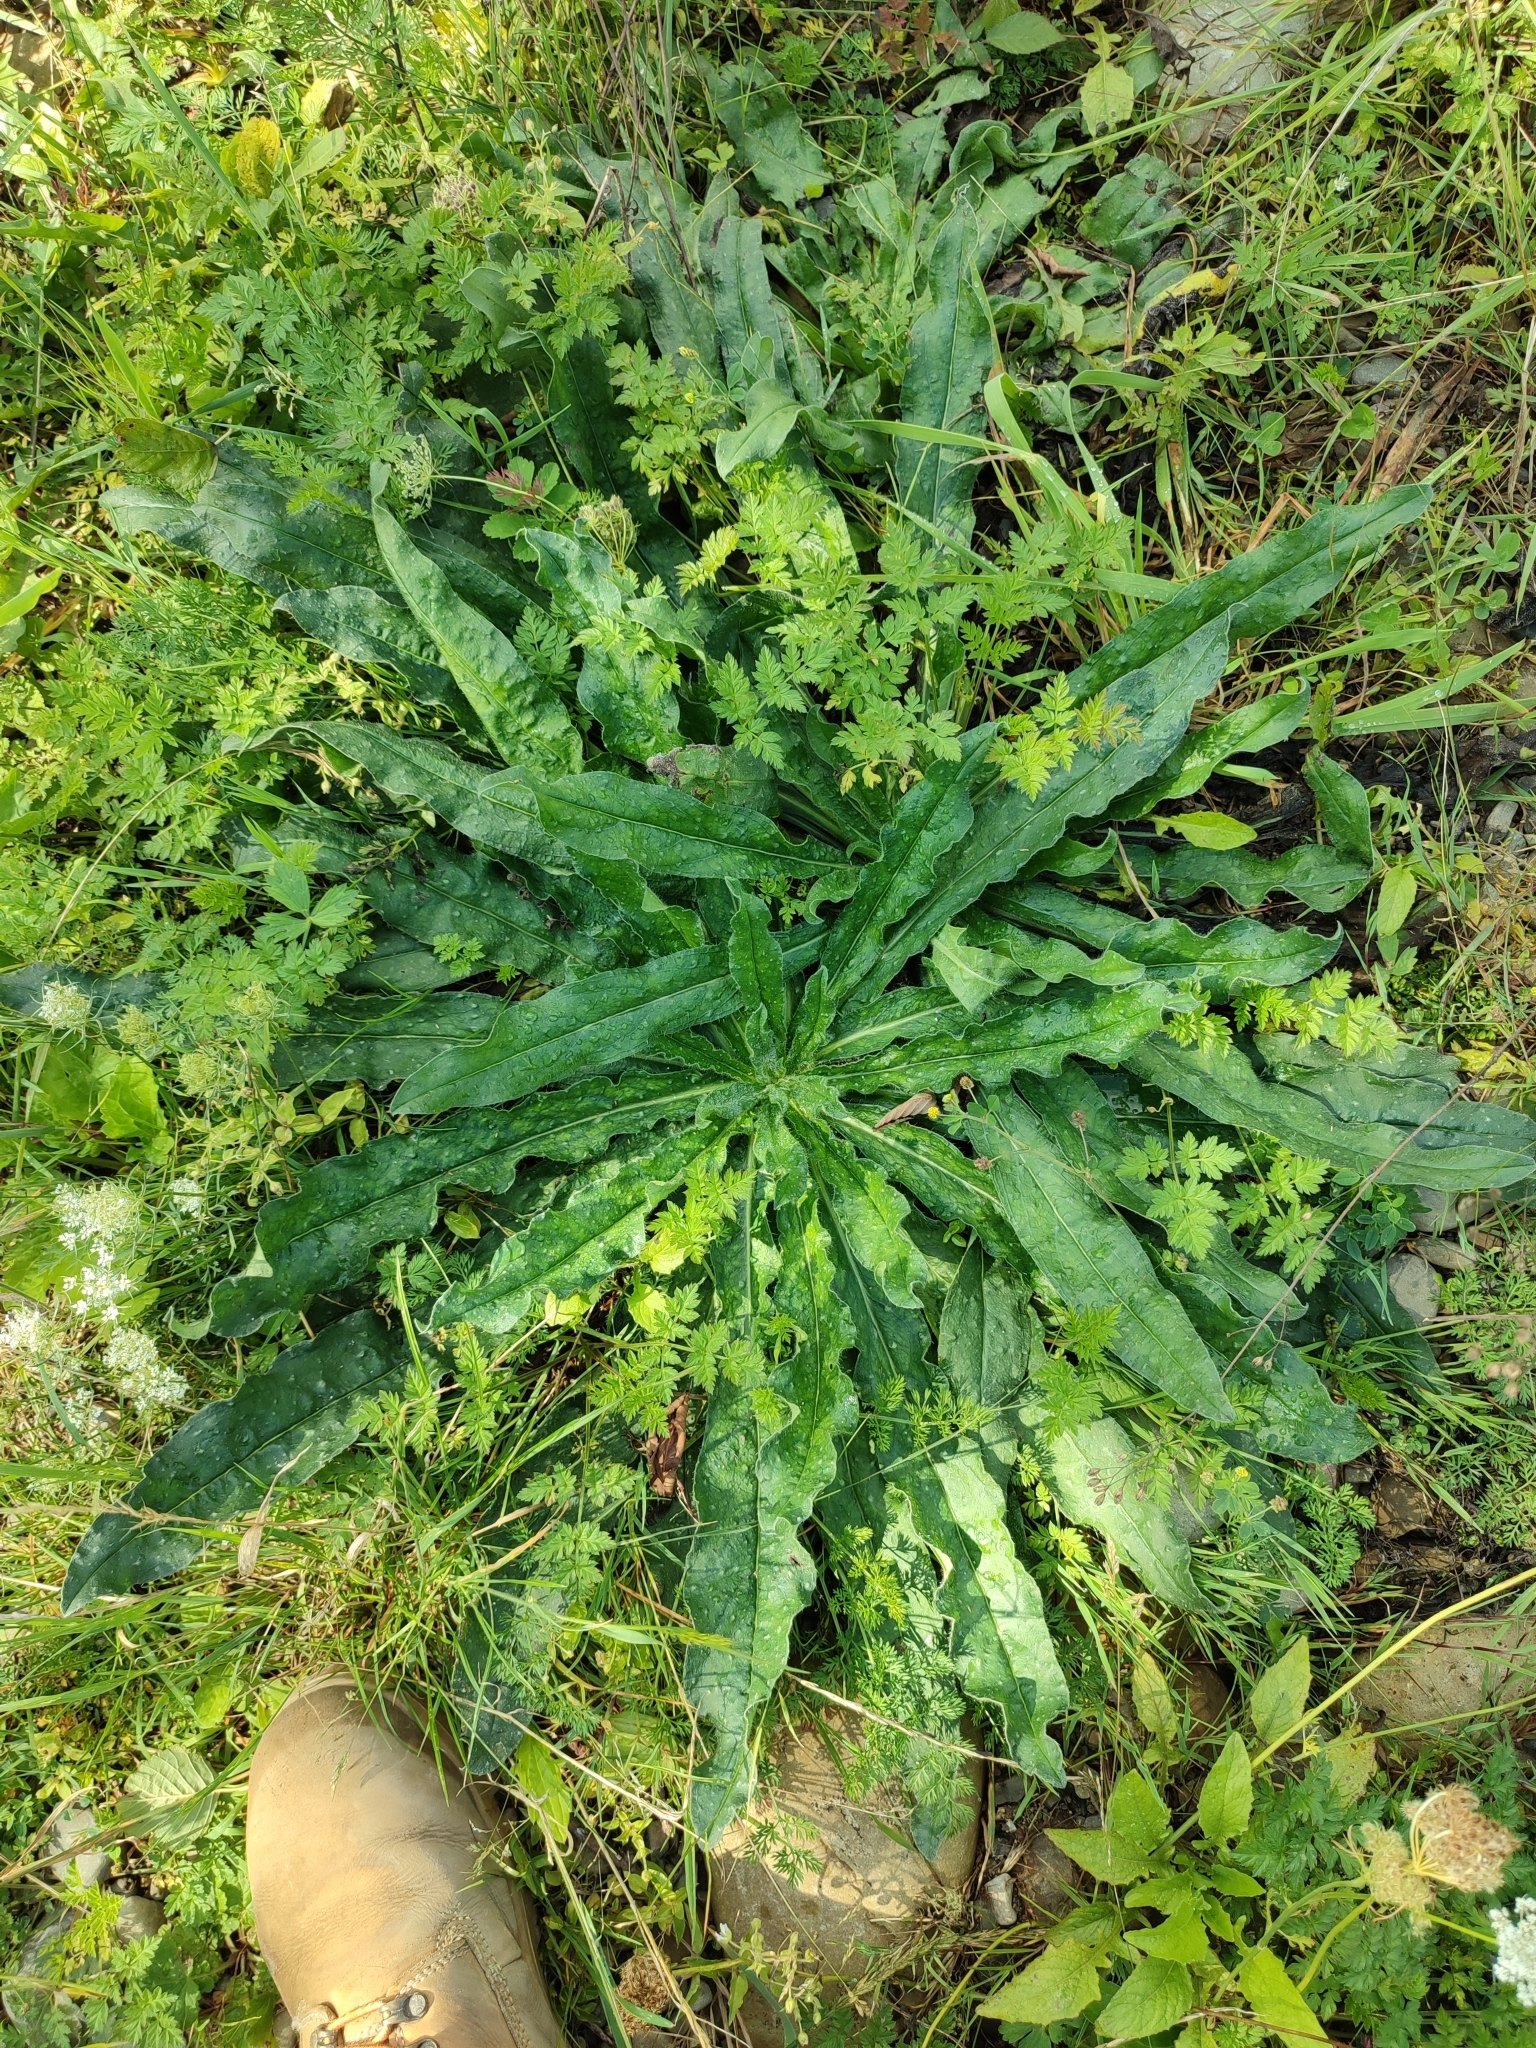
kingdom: Plantae
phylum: Tracheophyta
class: Magnoliopsida
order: Boraginales
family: Boraginaceae
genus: Echium
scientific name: Echium vulgare
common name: Common viper's bugloss
